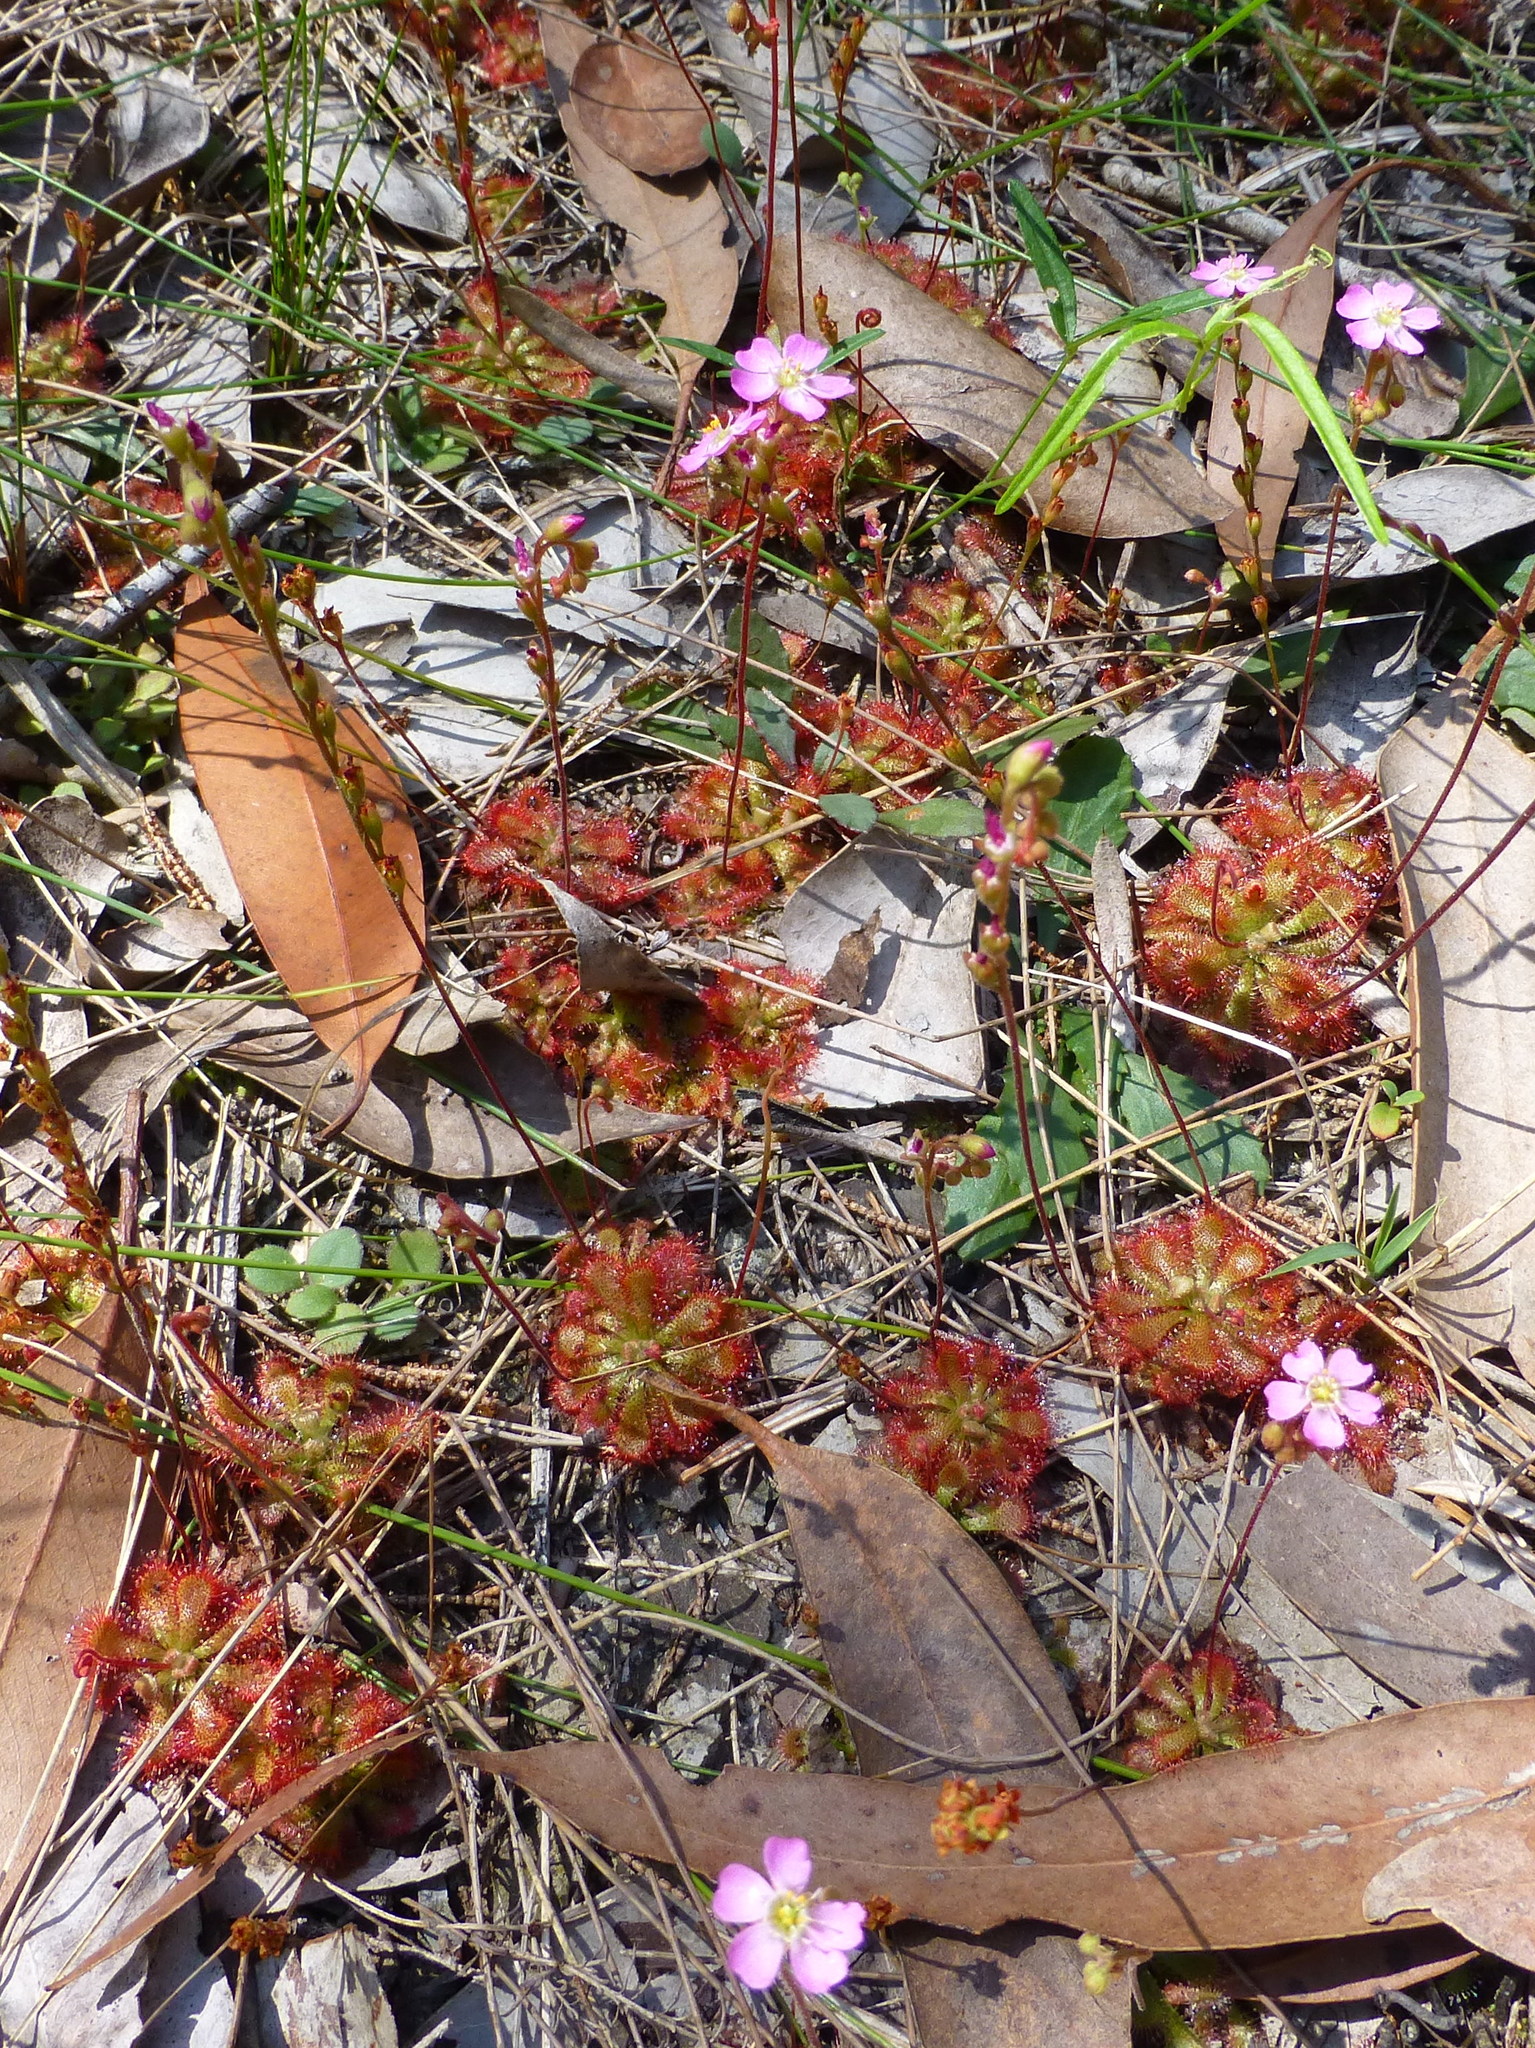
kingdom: Plantae
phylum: Tracheophyta
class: Magnoliopsida
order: Caryophyllales
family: Droseraceae
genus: Drosera
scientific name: Drosera spatulata
